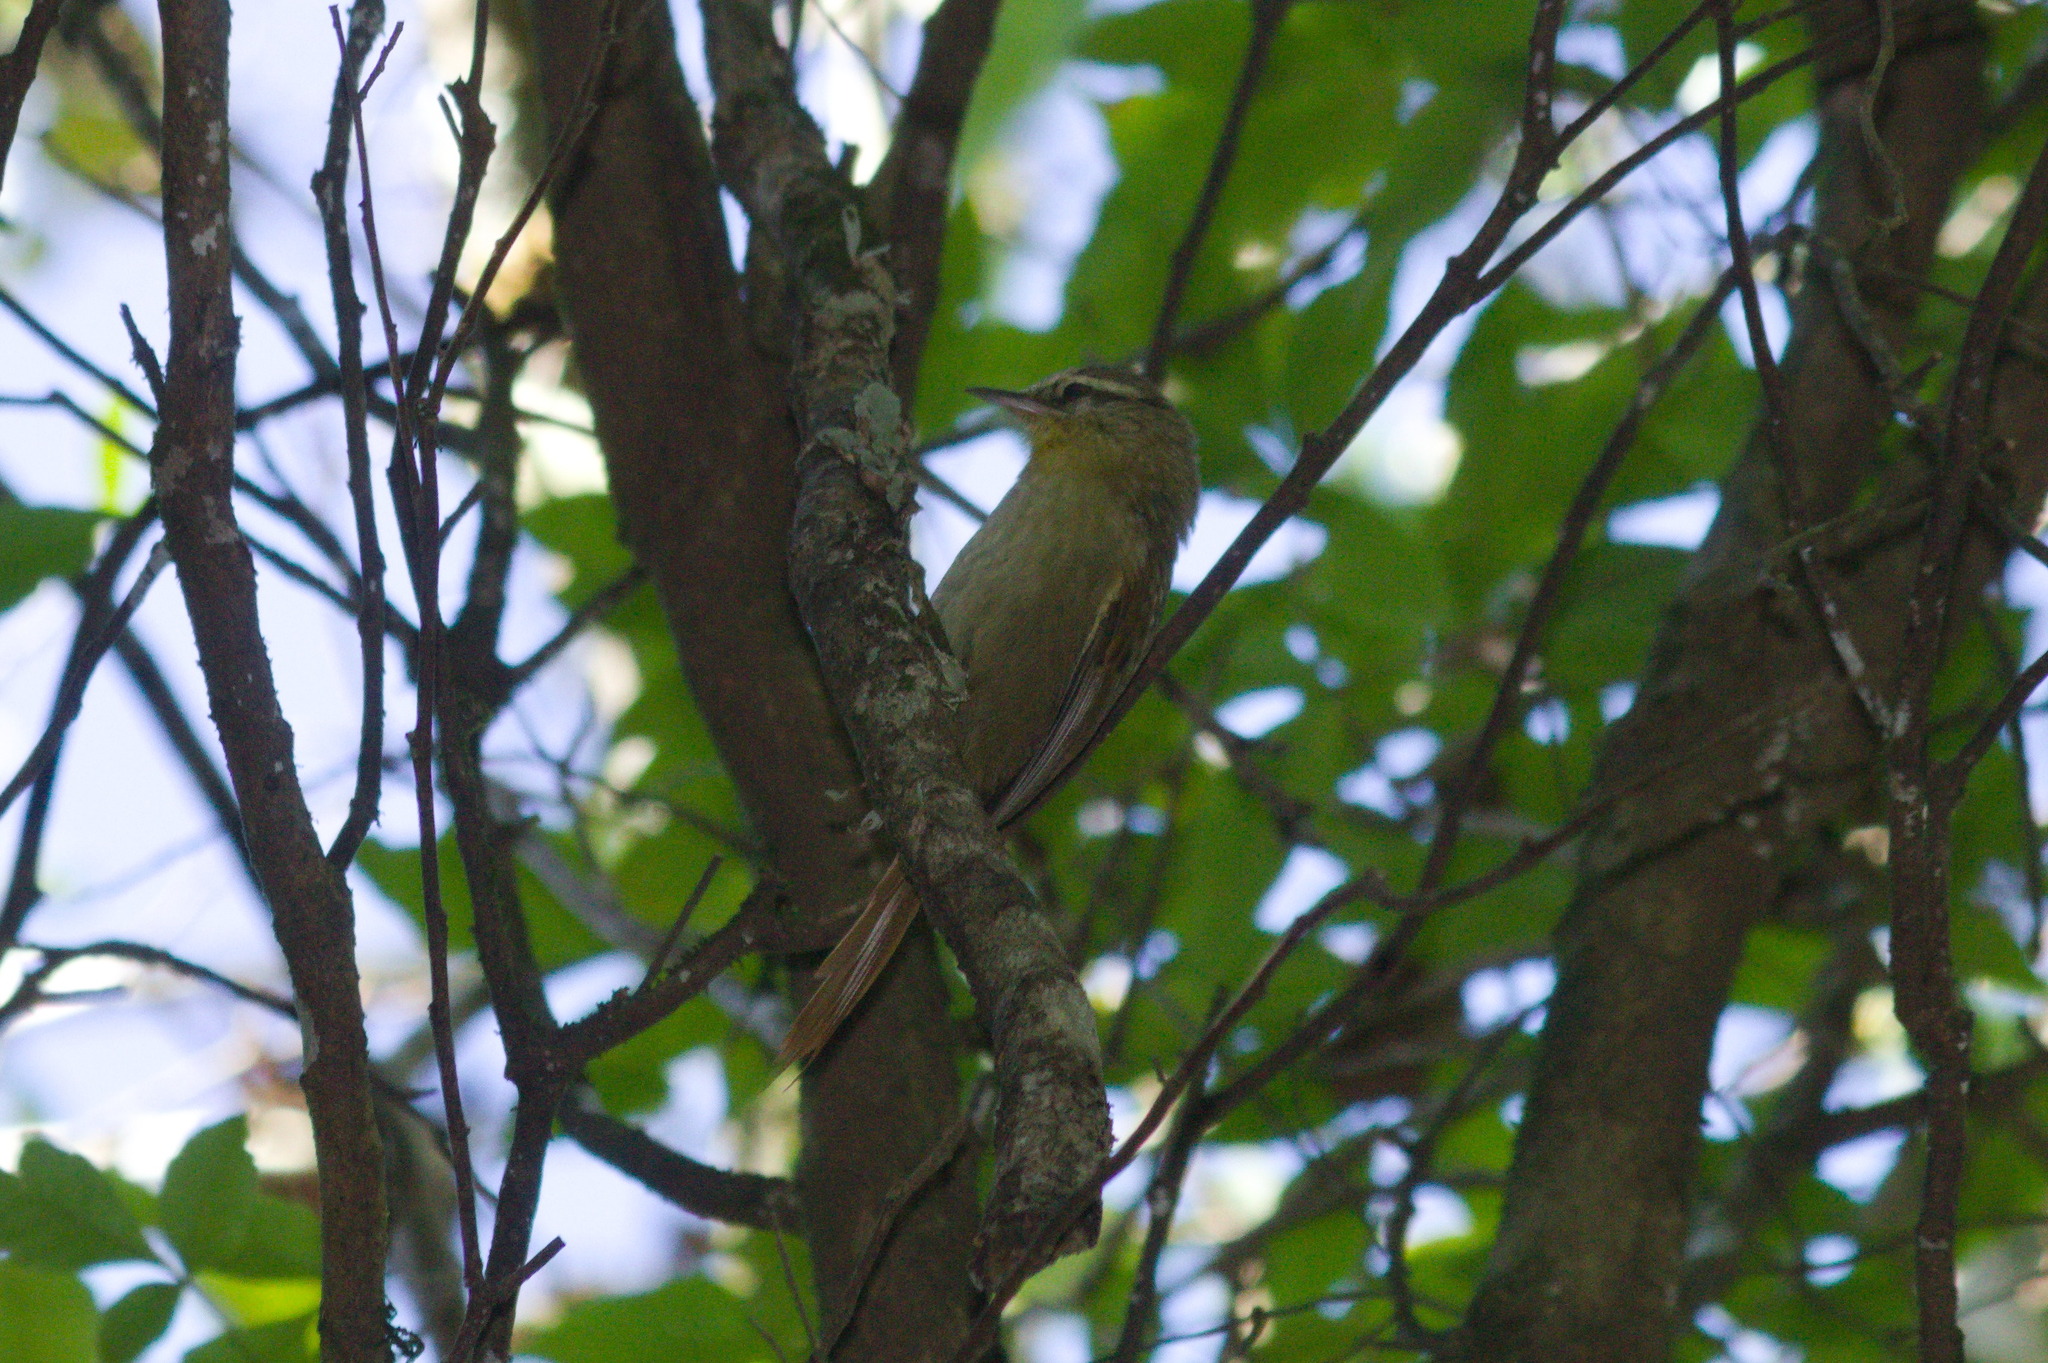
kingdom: Animalia
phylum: Chordata
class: Aves
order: Passeriformes
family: Furnariidae
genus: Cranioleuca
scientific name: Cranioleuca obsoleta
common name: Olive spinetail
